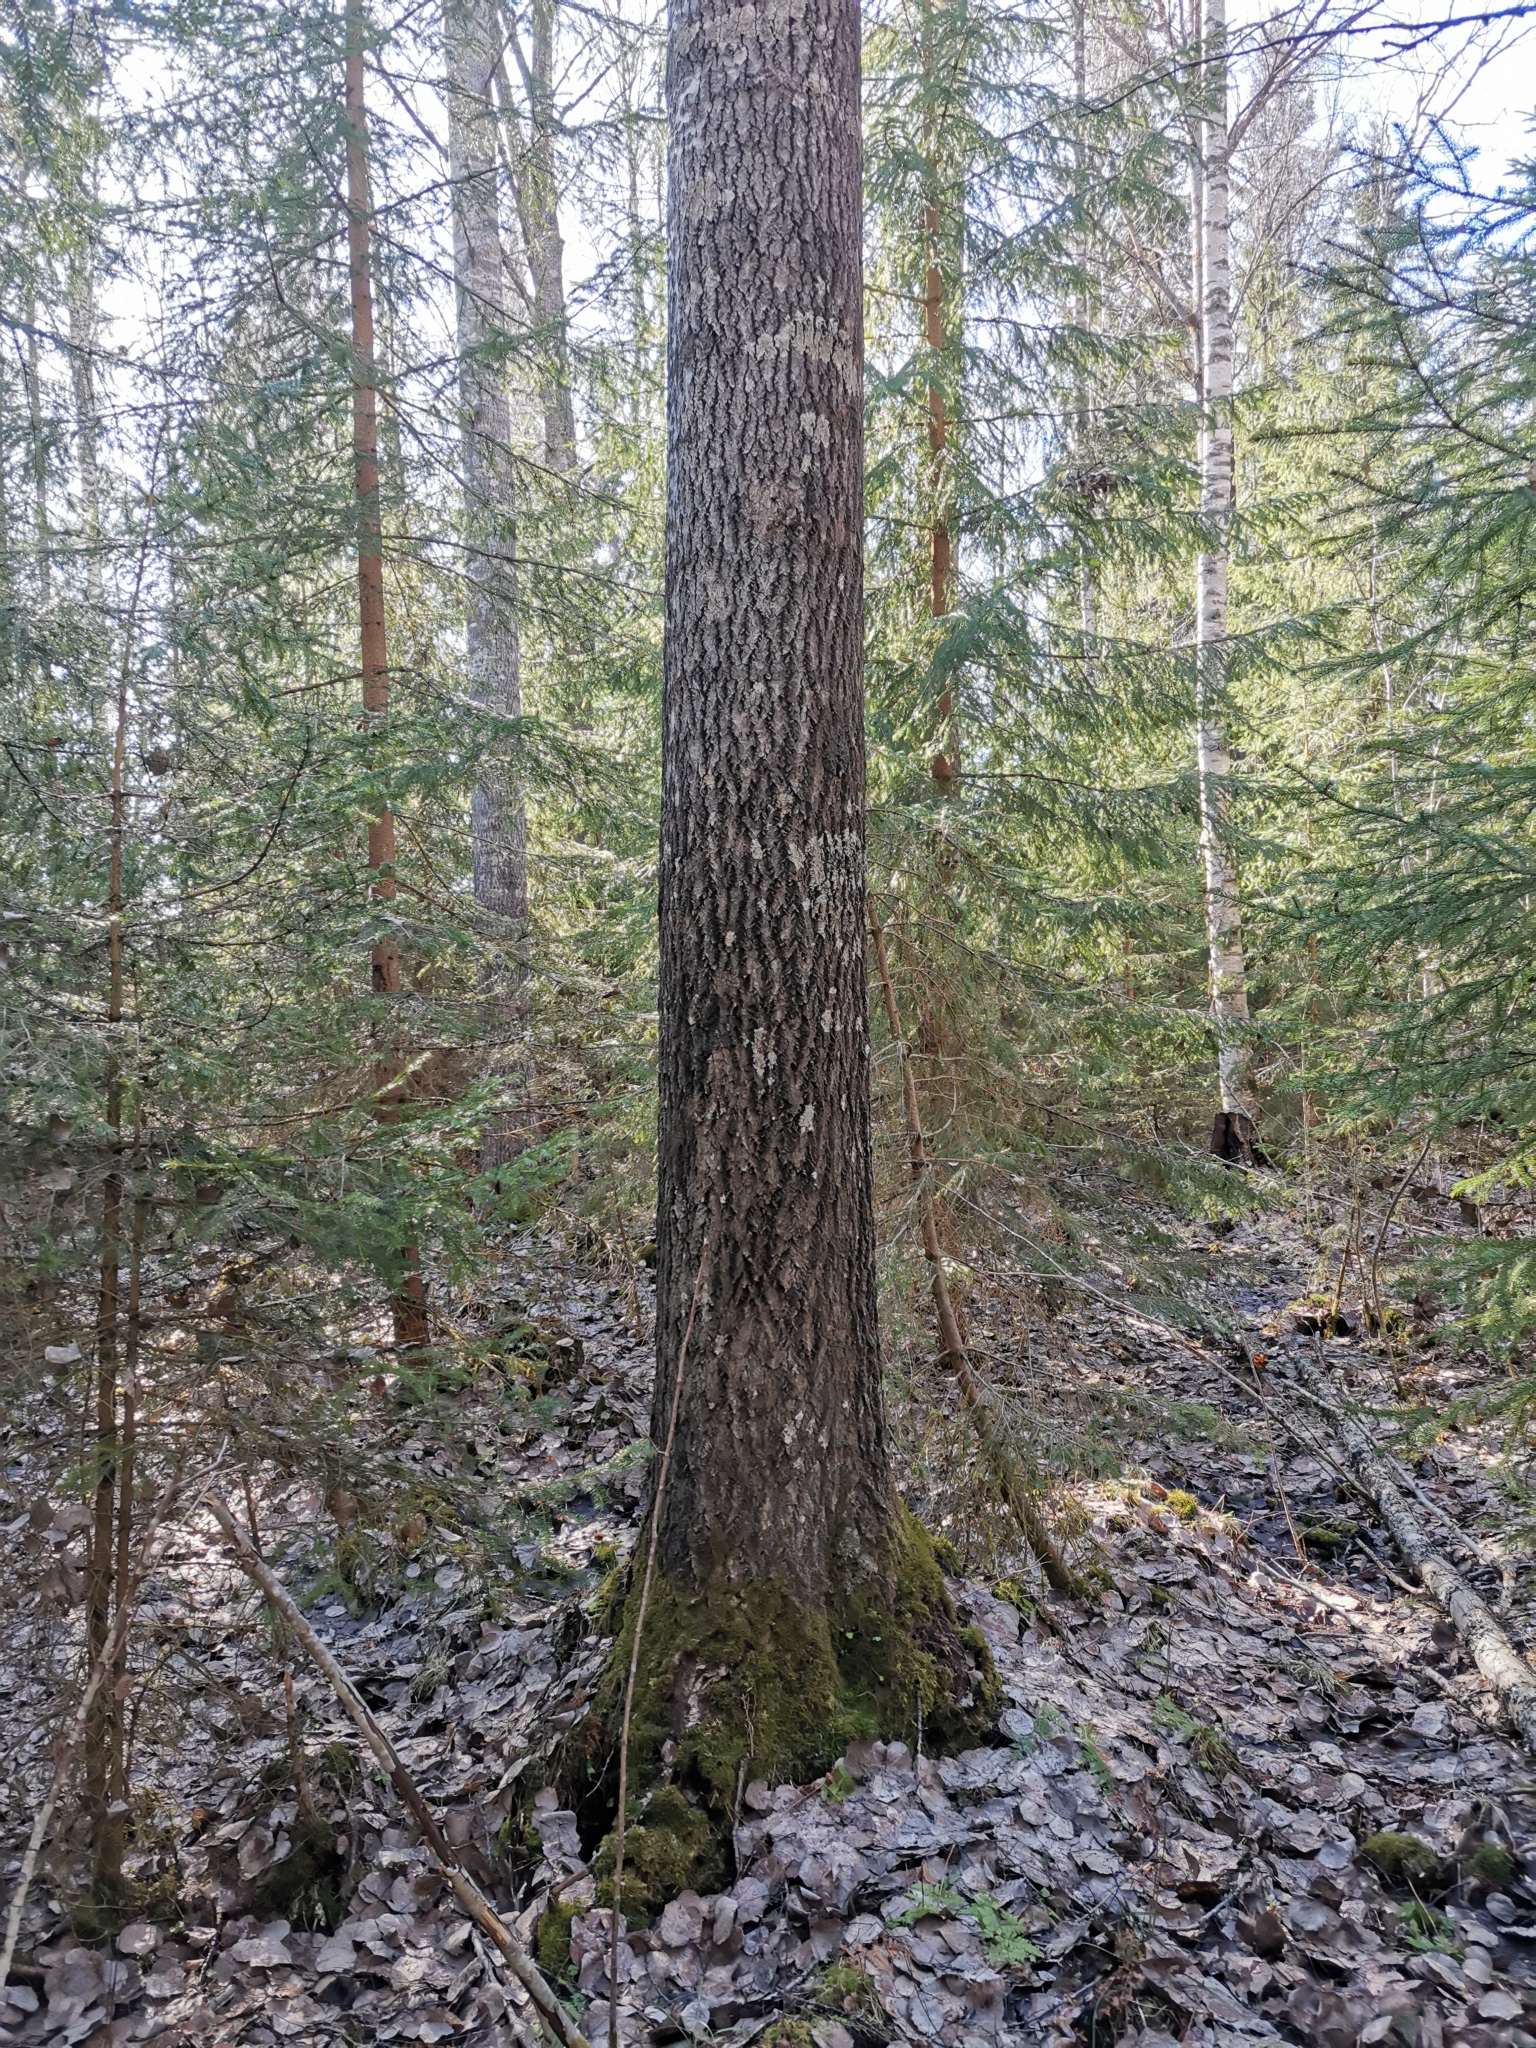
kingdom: Animalia
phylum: Chordata
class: Mammalia
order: Rodentia
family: Sciuridae
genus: Pteromys
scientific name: Pteromys volans
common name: Siberian flying squirrel
